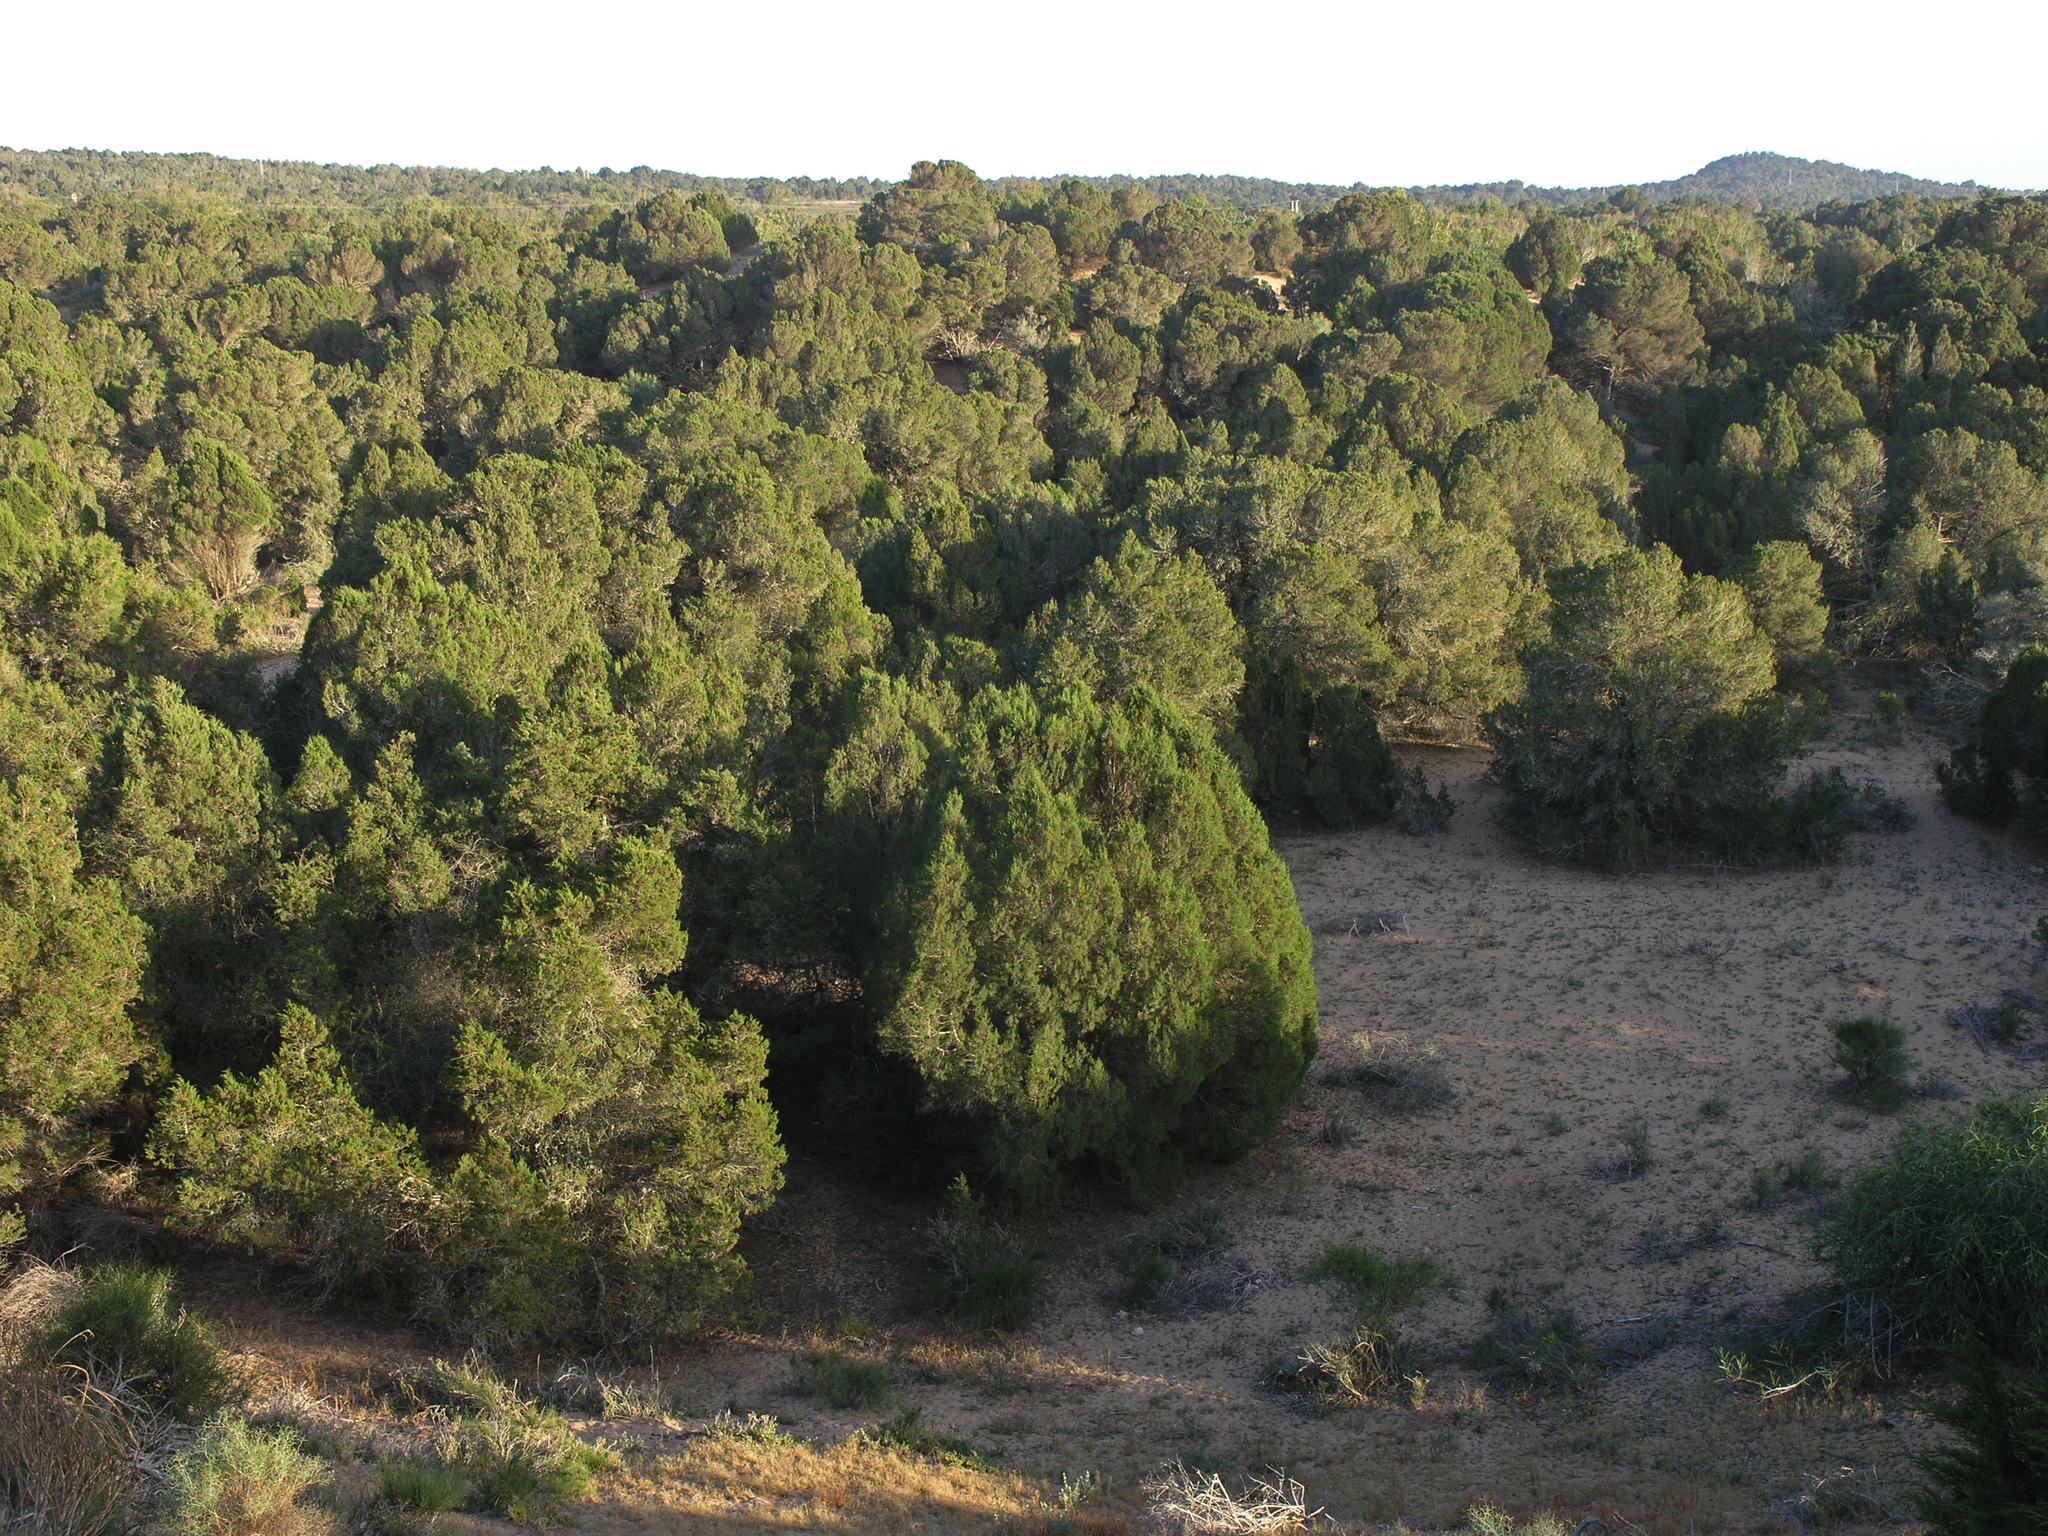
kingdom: Plantae
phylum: Tracheophyta
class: Pinopsida
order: Pinales
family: Cupressaceae
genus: Juniperus
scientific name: Juniperus phoenicea
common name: Phoenician juniper
